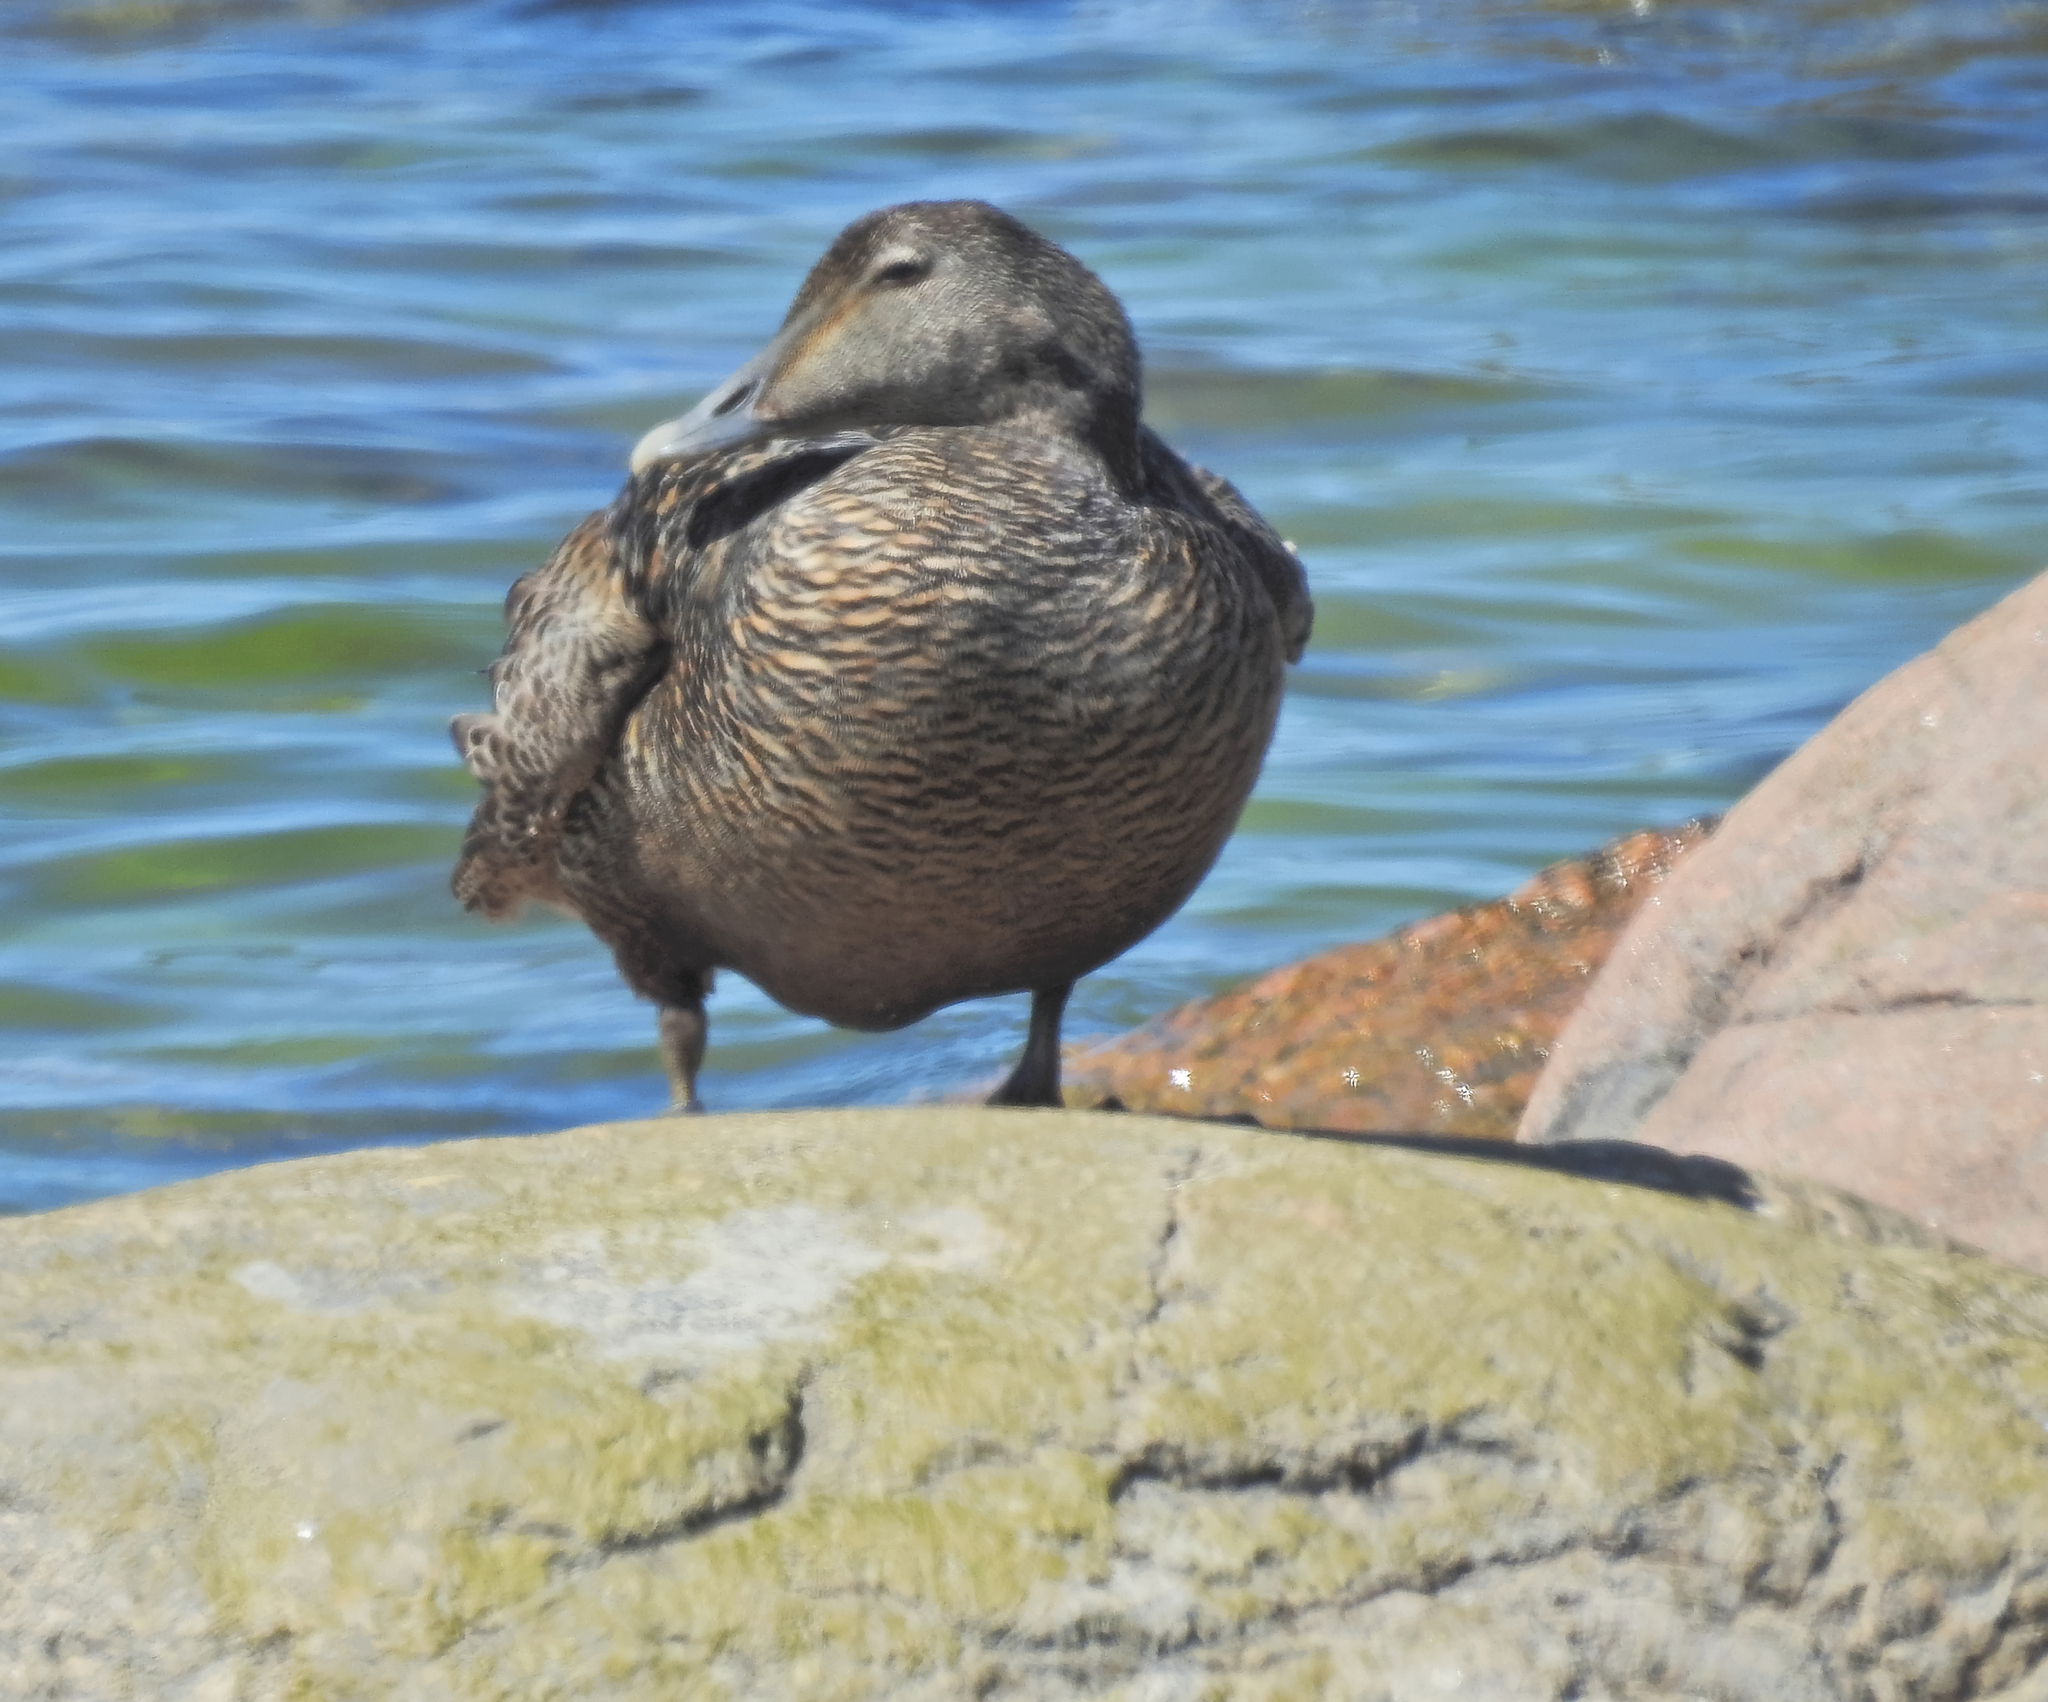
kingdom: Animalia
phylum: Chordata
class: Aves
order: Anseriformes
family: Anatidae
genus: Somateria
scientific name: Somateria mollissima
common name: Common eider
